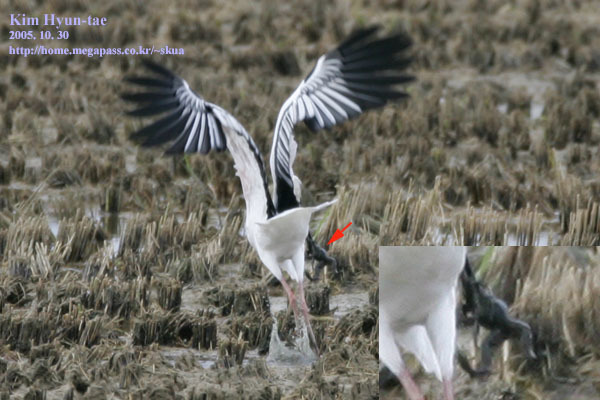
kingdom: Animalia
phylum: Chordata
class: Aves
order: Ciconiiformes
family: Ciconiidae
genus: Ciconia
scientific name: Ciconia boyciana
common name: Oriental stork
